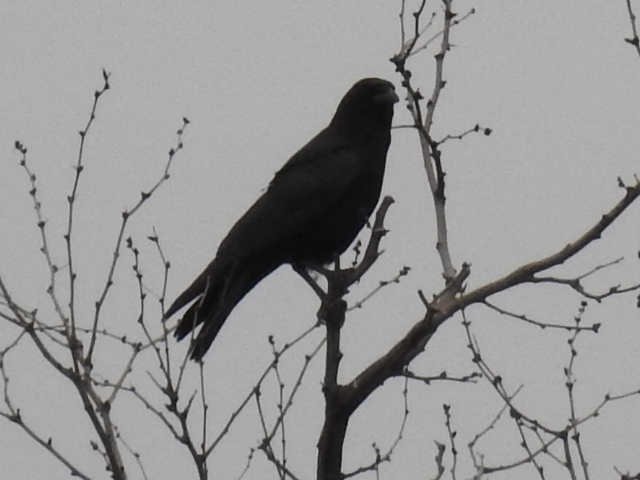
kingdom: Animalia
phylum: Chordata
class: Aves
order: Passeriformes
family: Corvidae
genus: Corvus
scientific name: Corvus brachyrhynchos
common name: American crow
